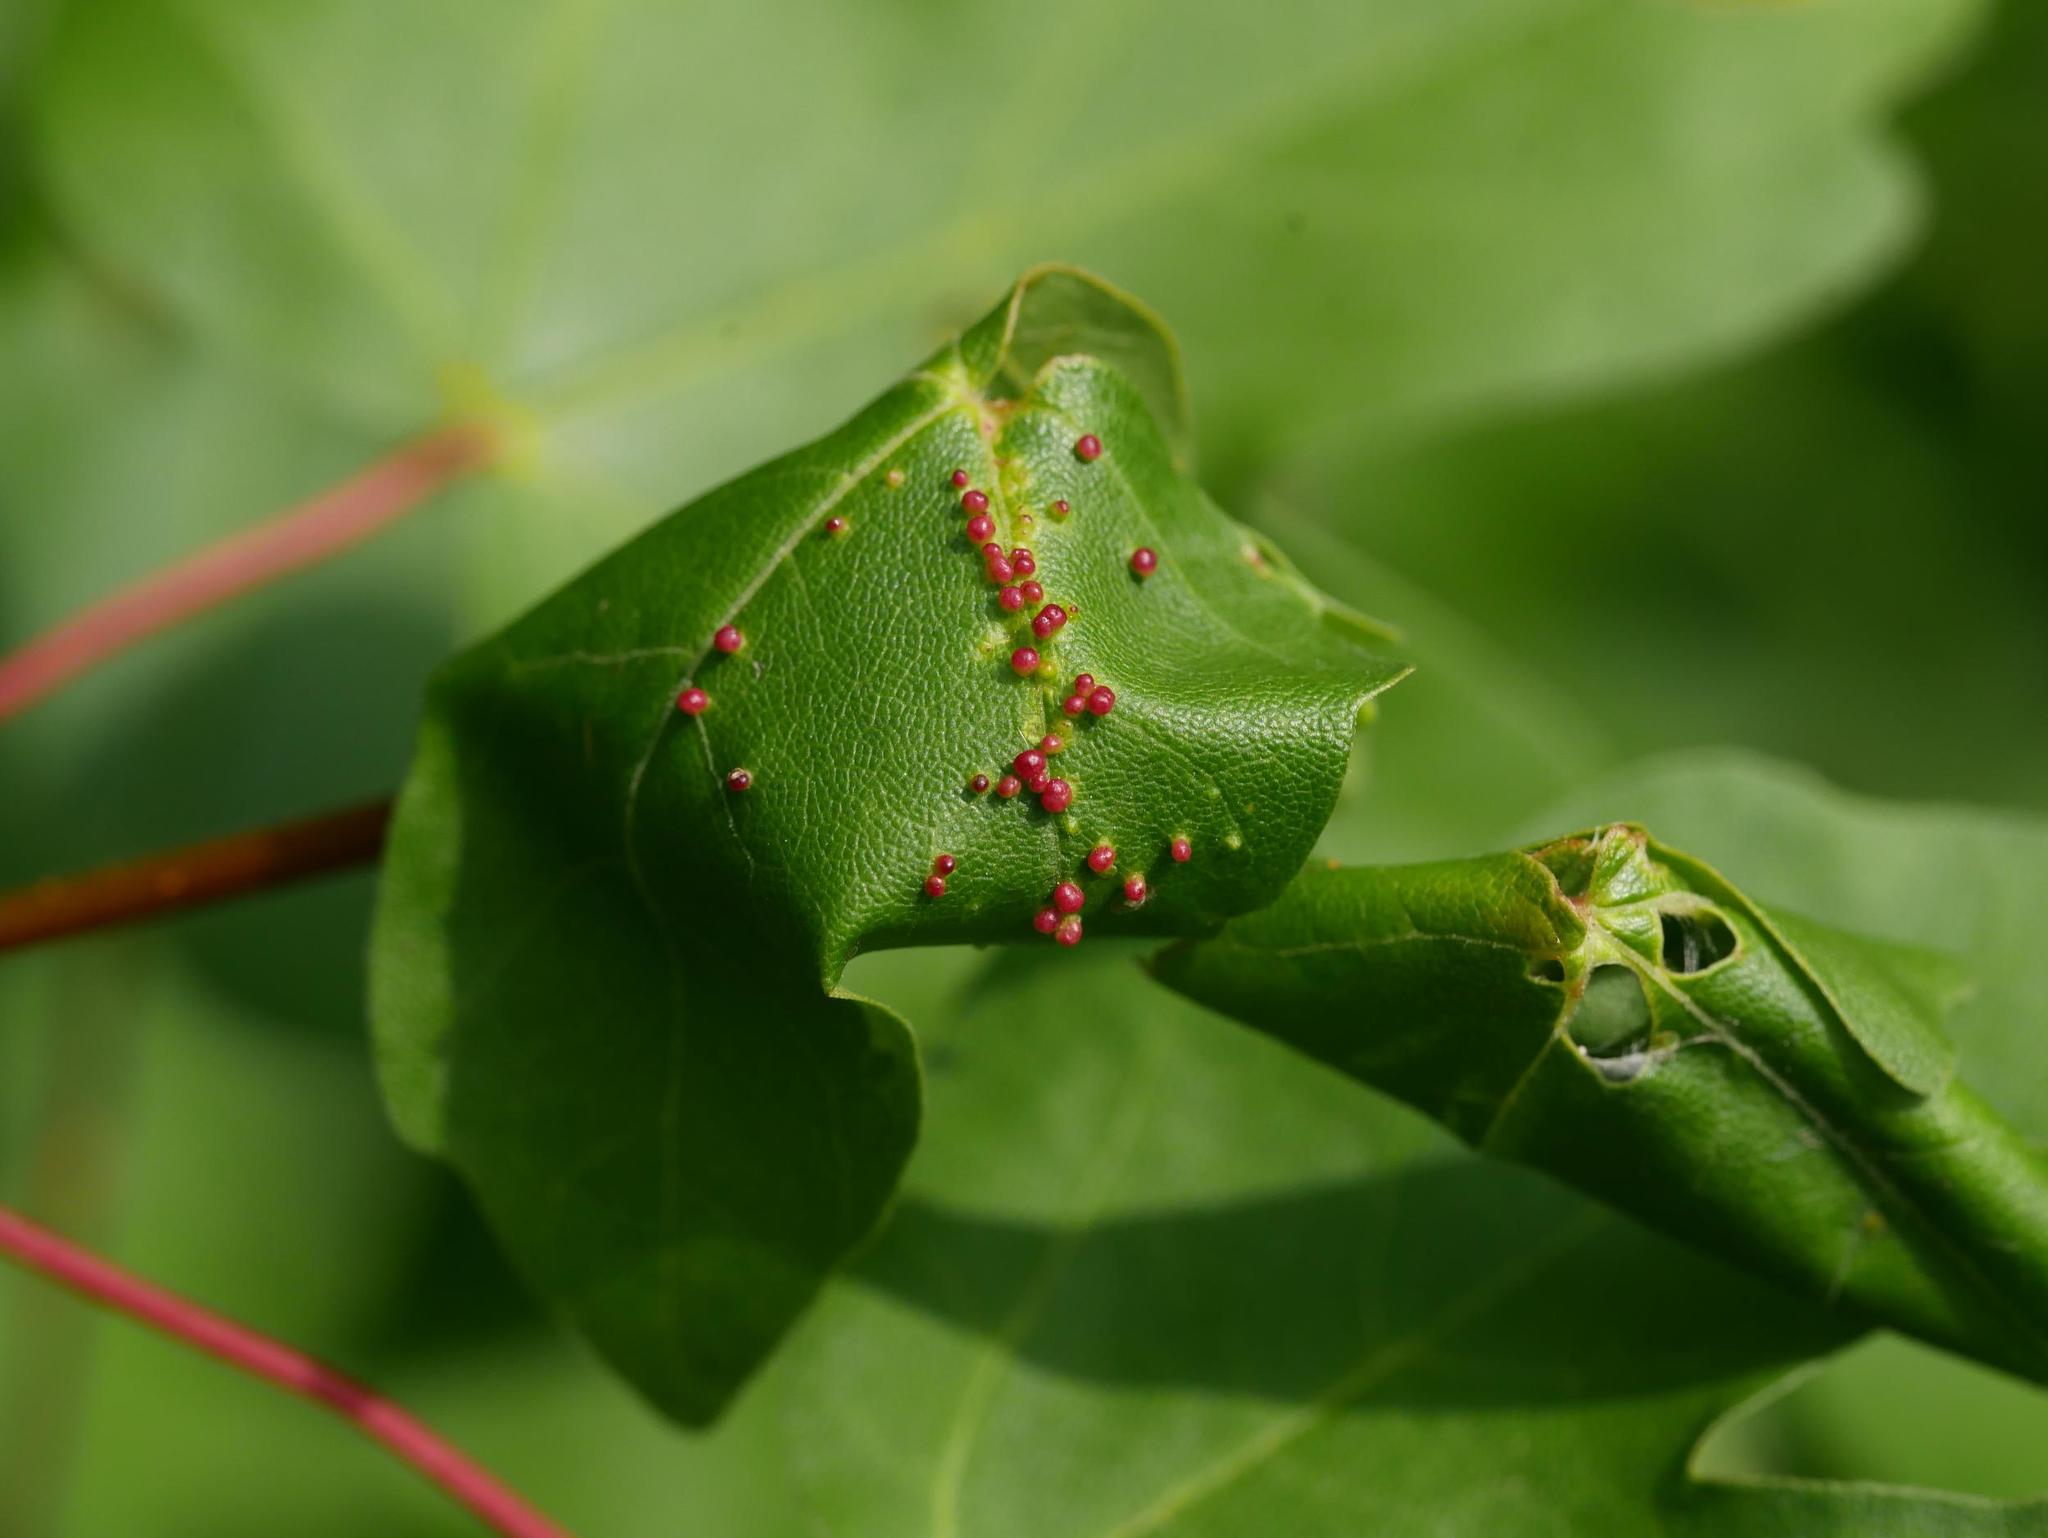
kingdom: Animalia
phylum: Arthropoda
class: Arachnida
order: Trombidiformes
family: Eriophyidae
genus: Aceria
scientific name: Aceria myriadeum
